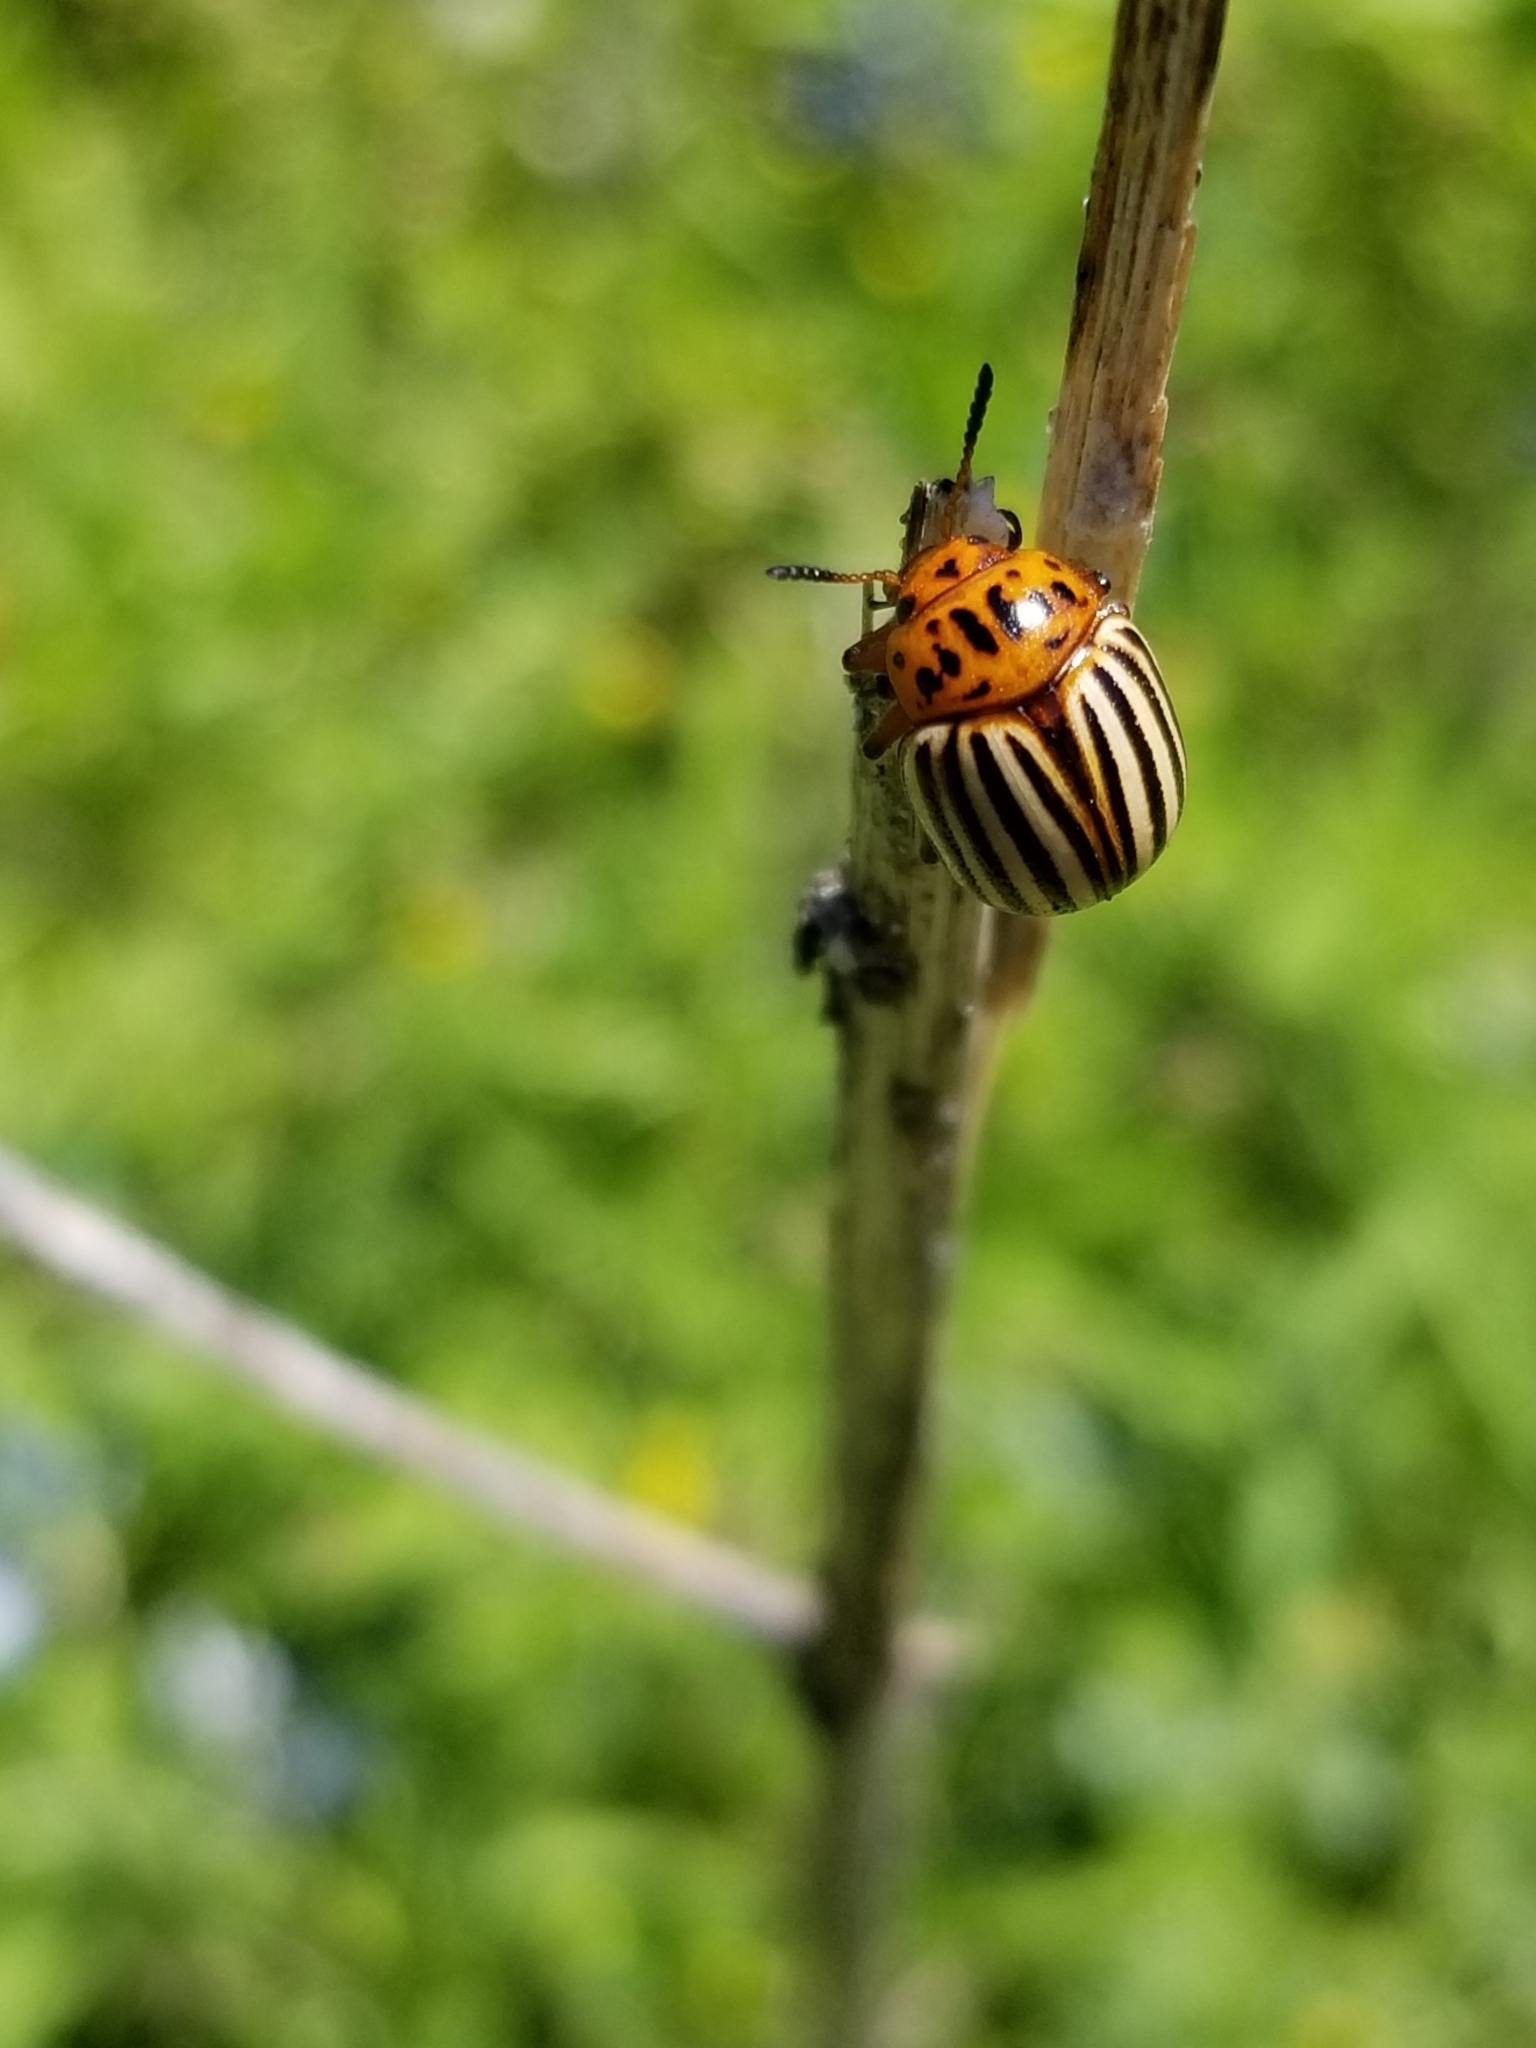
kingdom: Animalia
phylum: Arthropoda
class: Insecta
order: Coleoptera
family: Chrysomelidae
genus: Leptinotarsa
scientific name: Leptinotarsa decemlineata
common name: Colorado potato beetle
